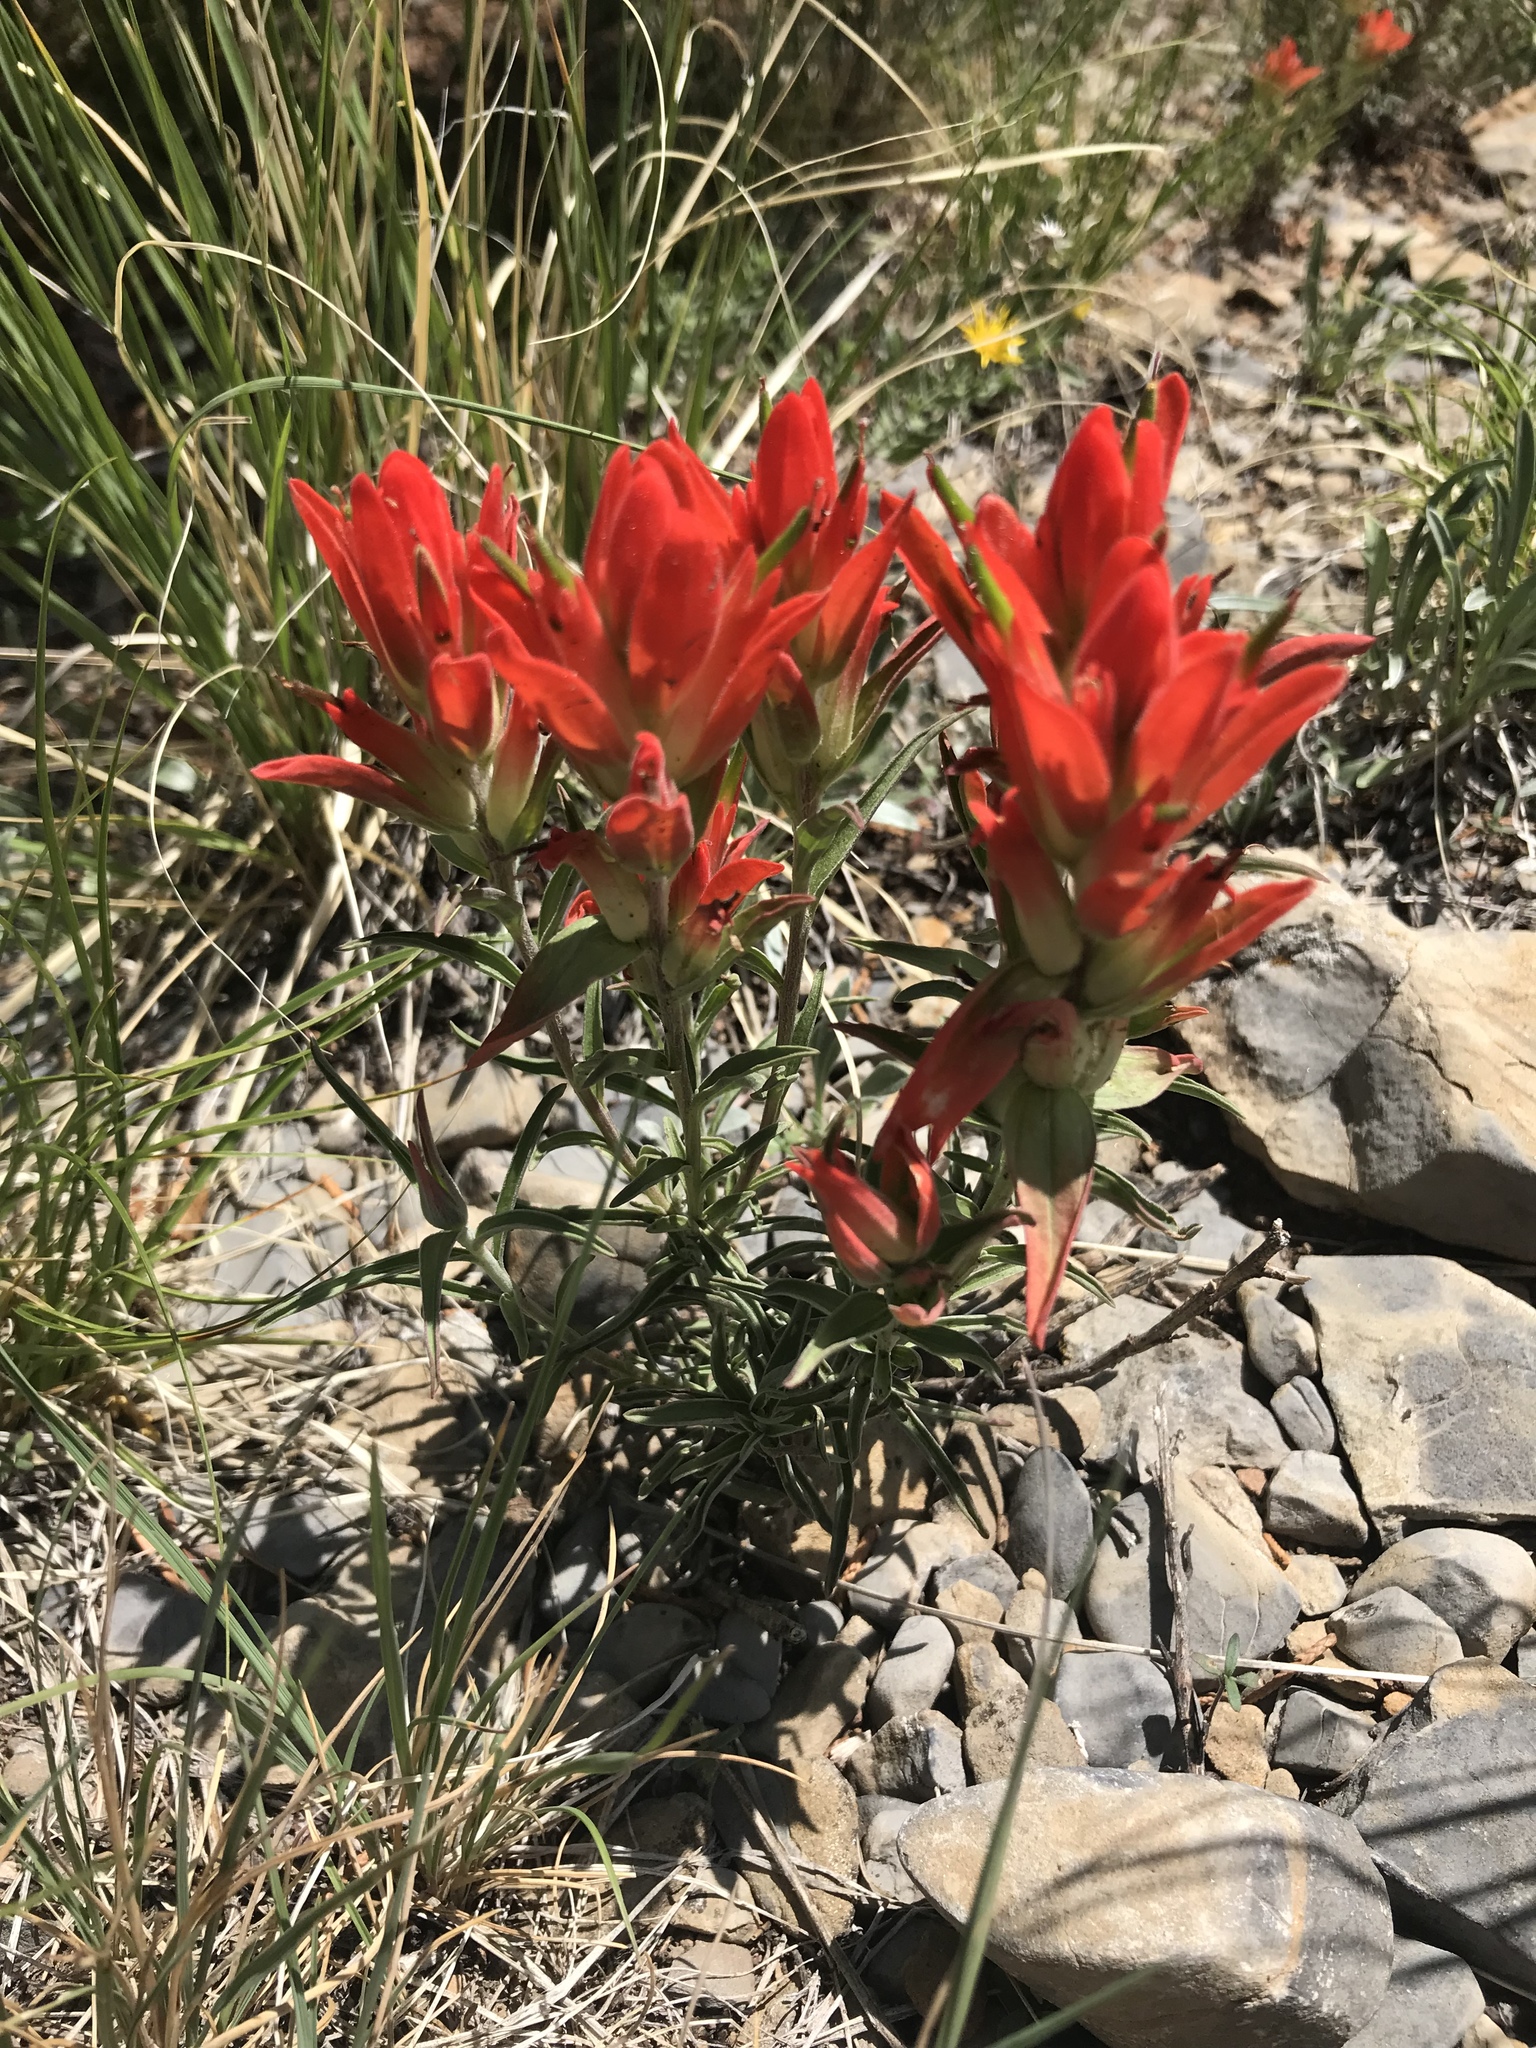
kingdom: Plantae
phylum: Tracheophyta
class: Magnoliopsida
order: Lamiales
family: Orobanchaceae
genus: Castilleja
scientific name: Castilleja integra
